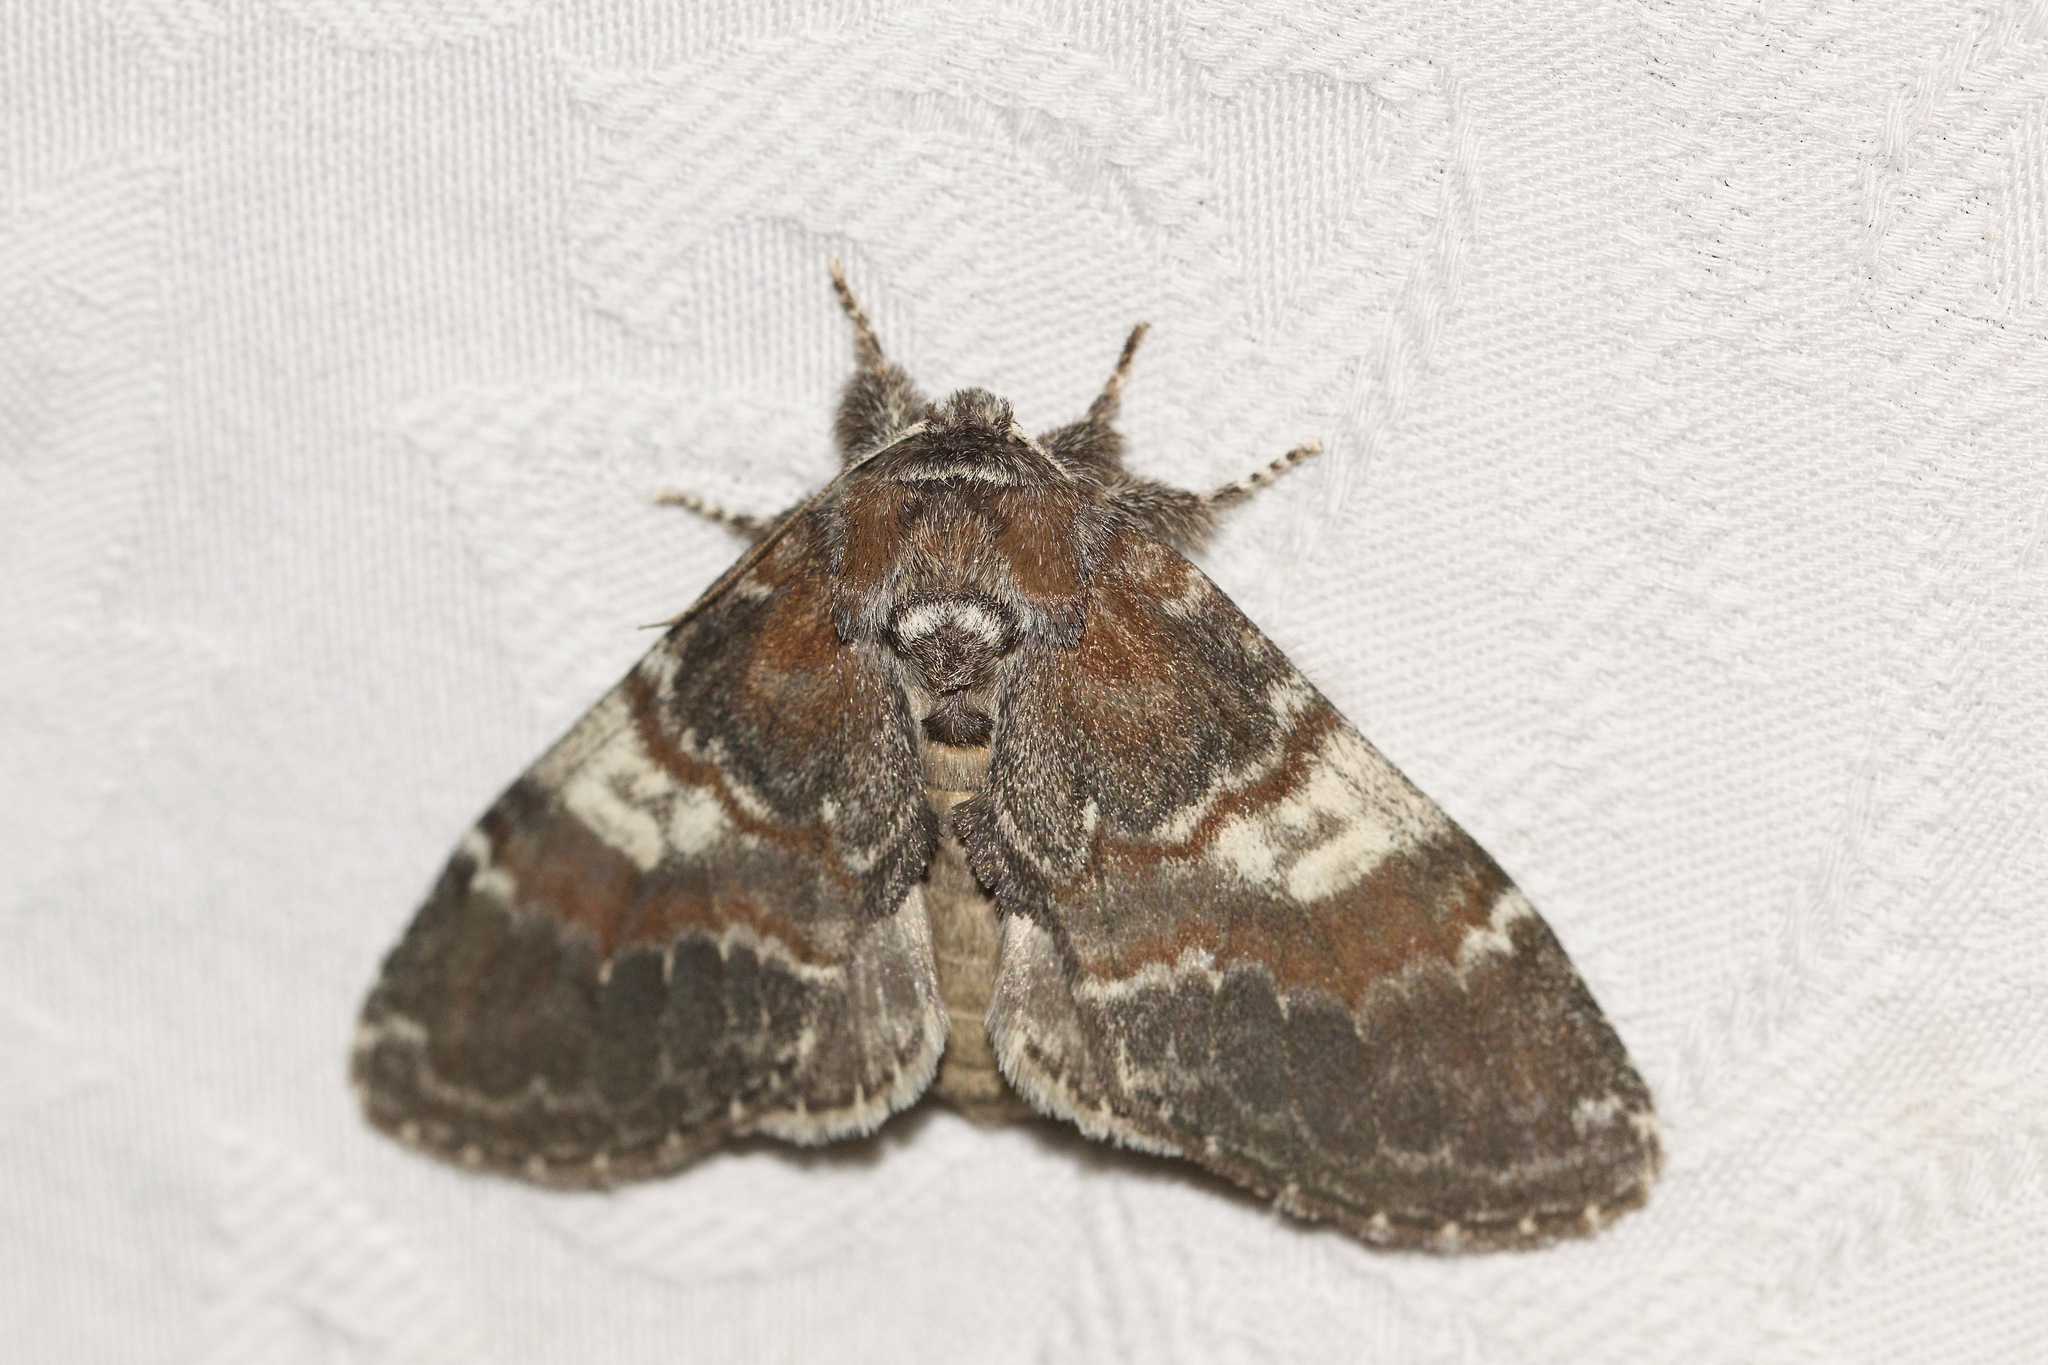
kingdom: Animalia
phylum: Arthropoda
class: Insecta
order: Lepidoptera
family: Notodontidae
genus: Peridea
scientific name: Peridea ferruginea
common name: Chocolate prominent
